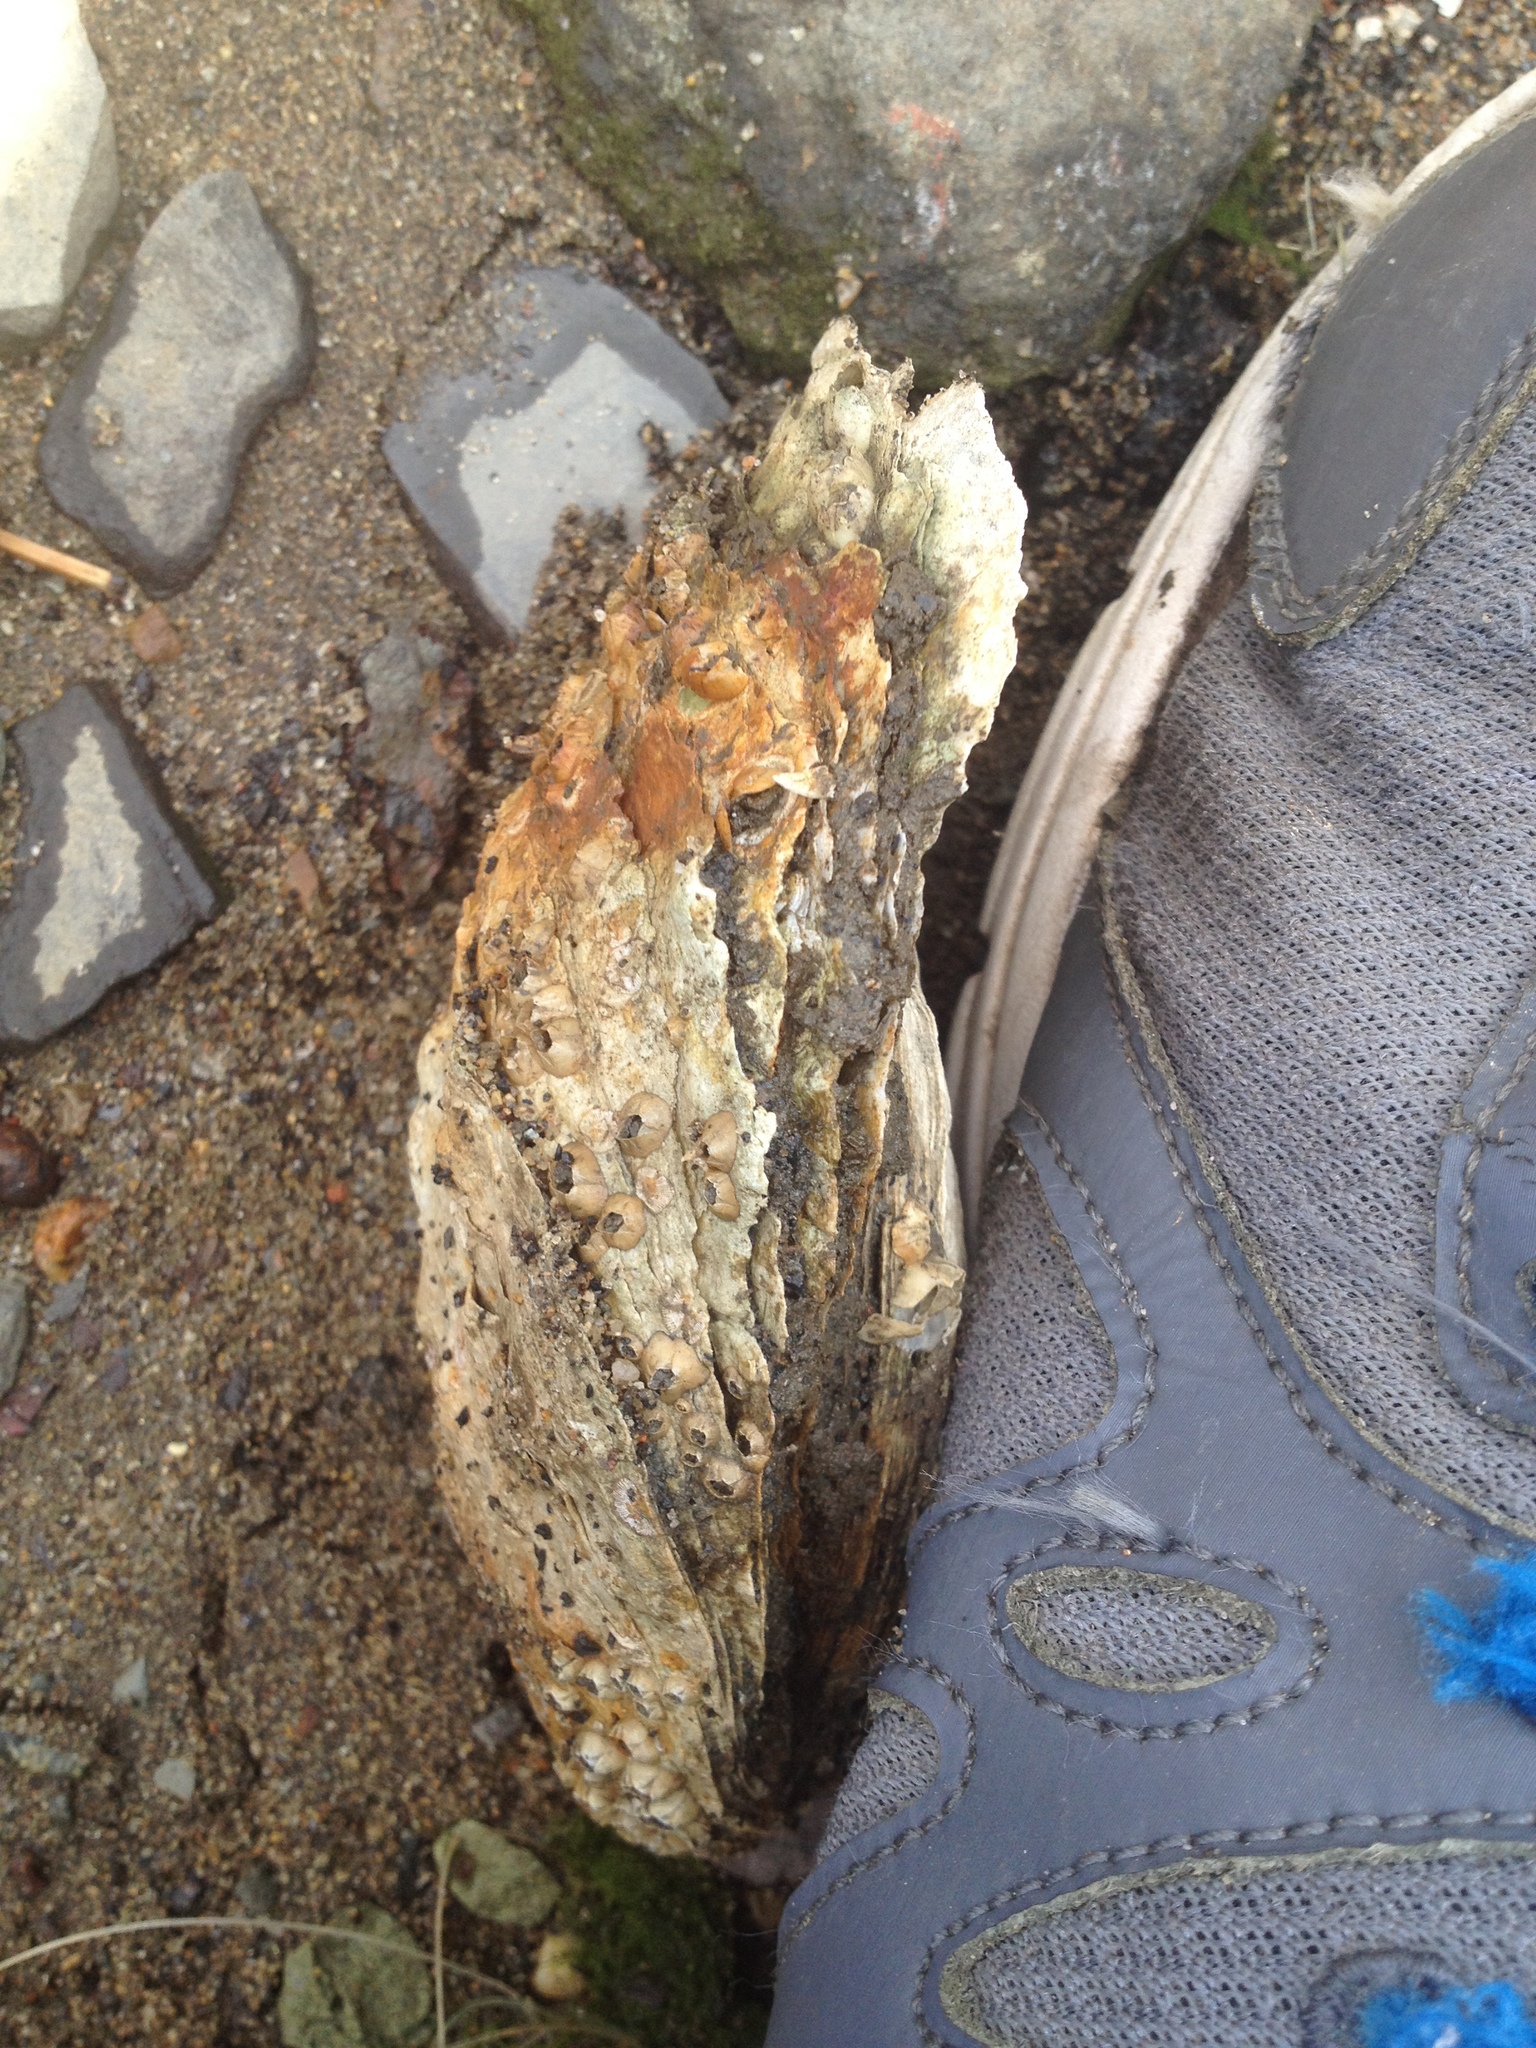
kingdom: Animalia
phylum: Mollusca
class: Bivalvia
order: Ostreida
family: Ostreidae
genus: Crassostrea
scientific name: Crassostrea virginica
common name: American oyster
